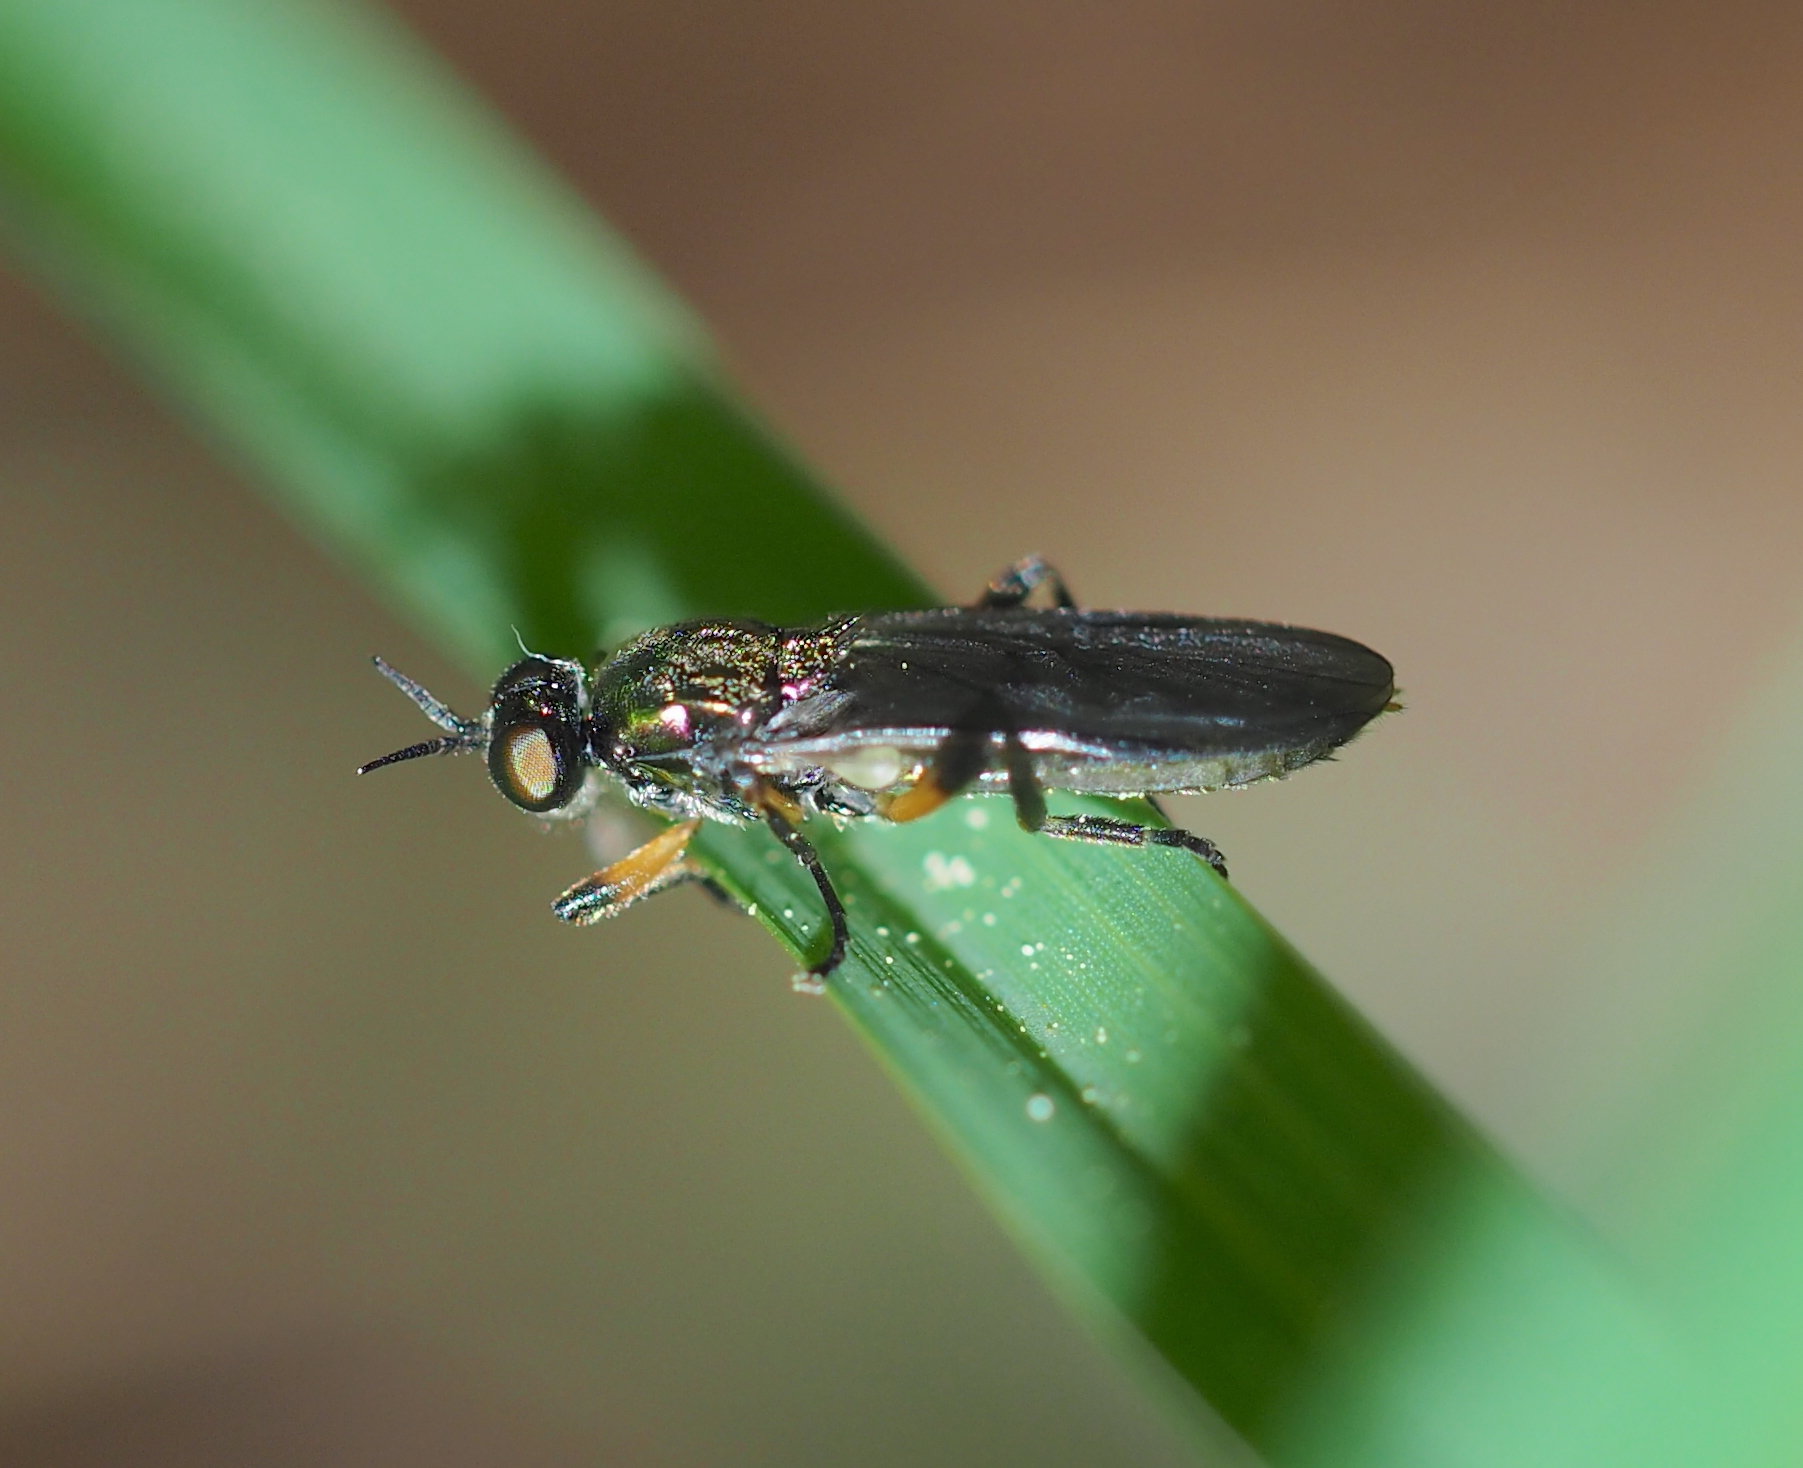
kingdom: Animalia
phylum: Arthropoda
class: Insecta
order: Diptera
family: Stratiomyidae
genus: Actina
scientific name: Actina chalybea
